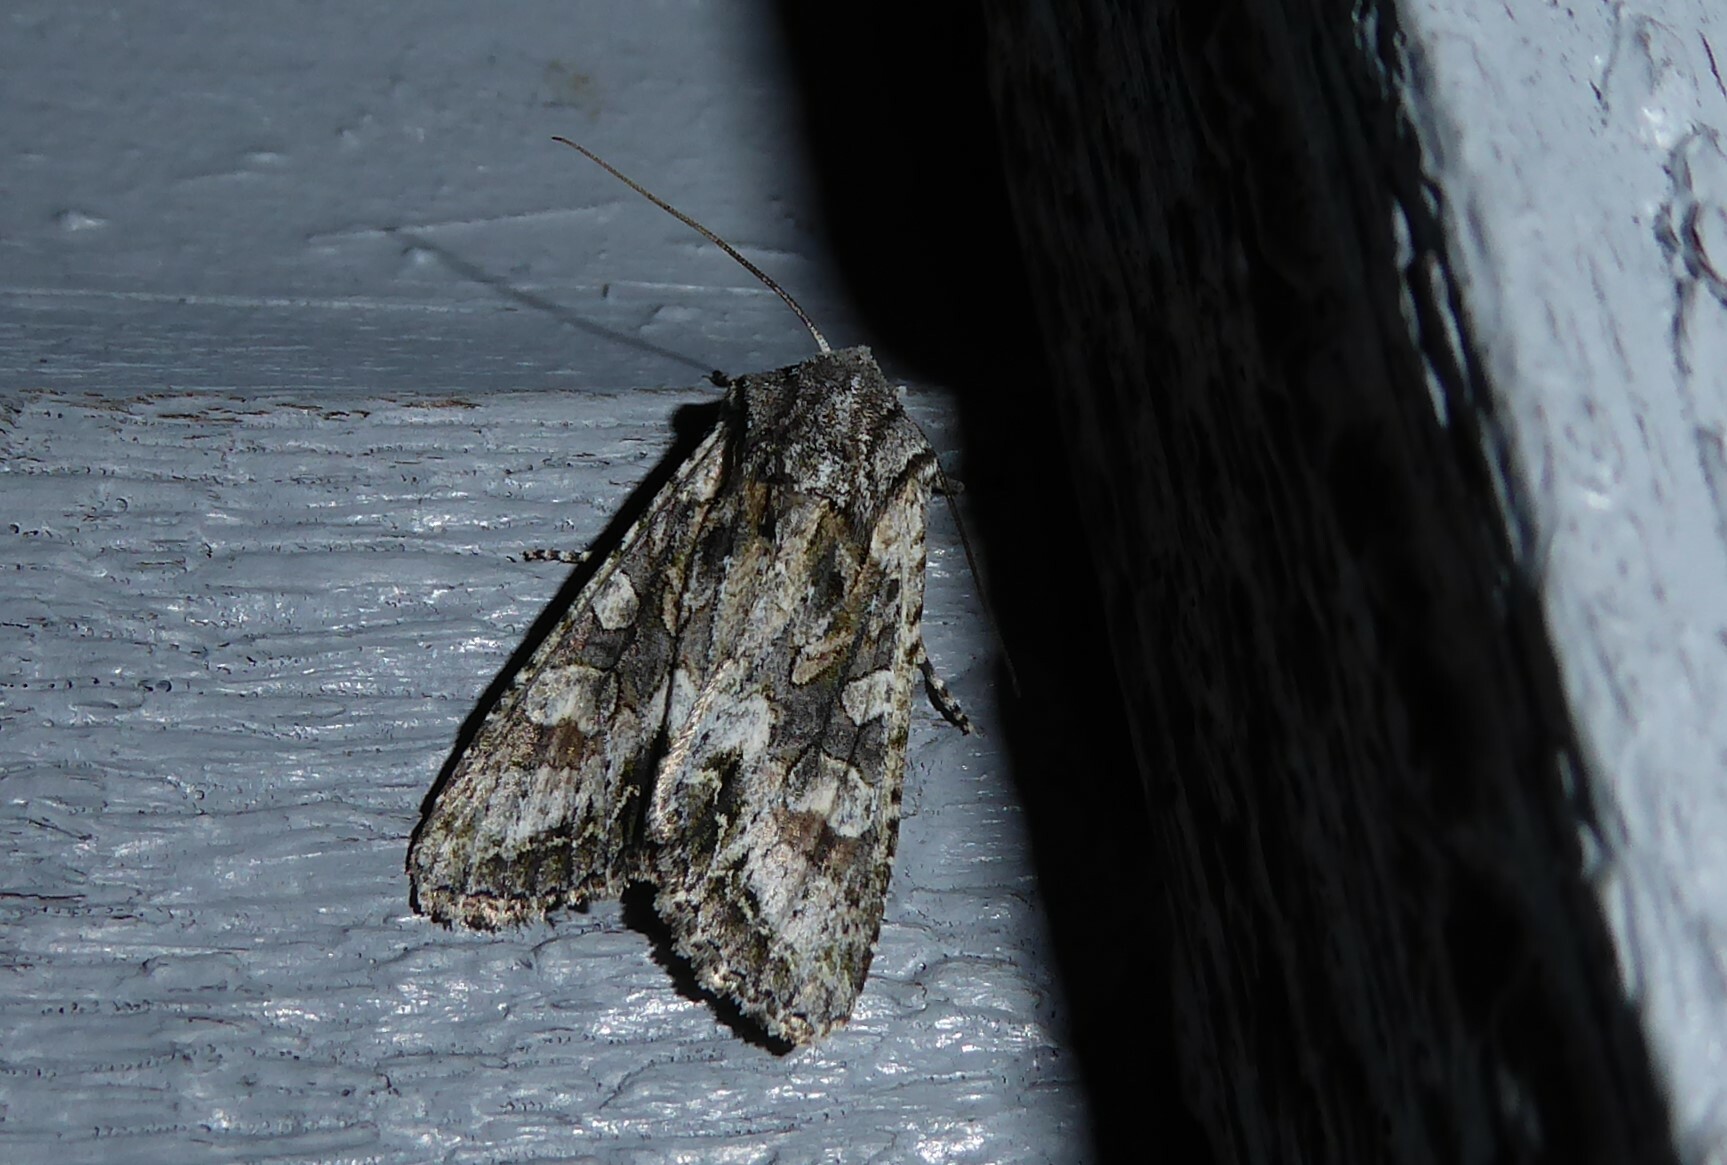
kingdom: Animalia
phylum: Arthropoda
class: Insecta
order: Lepidoptera
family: Noctuidae
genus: Ichneutica
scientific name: Ichneutica mutans
